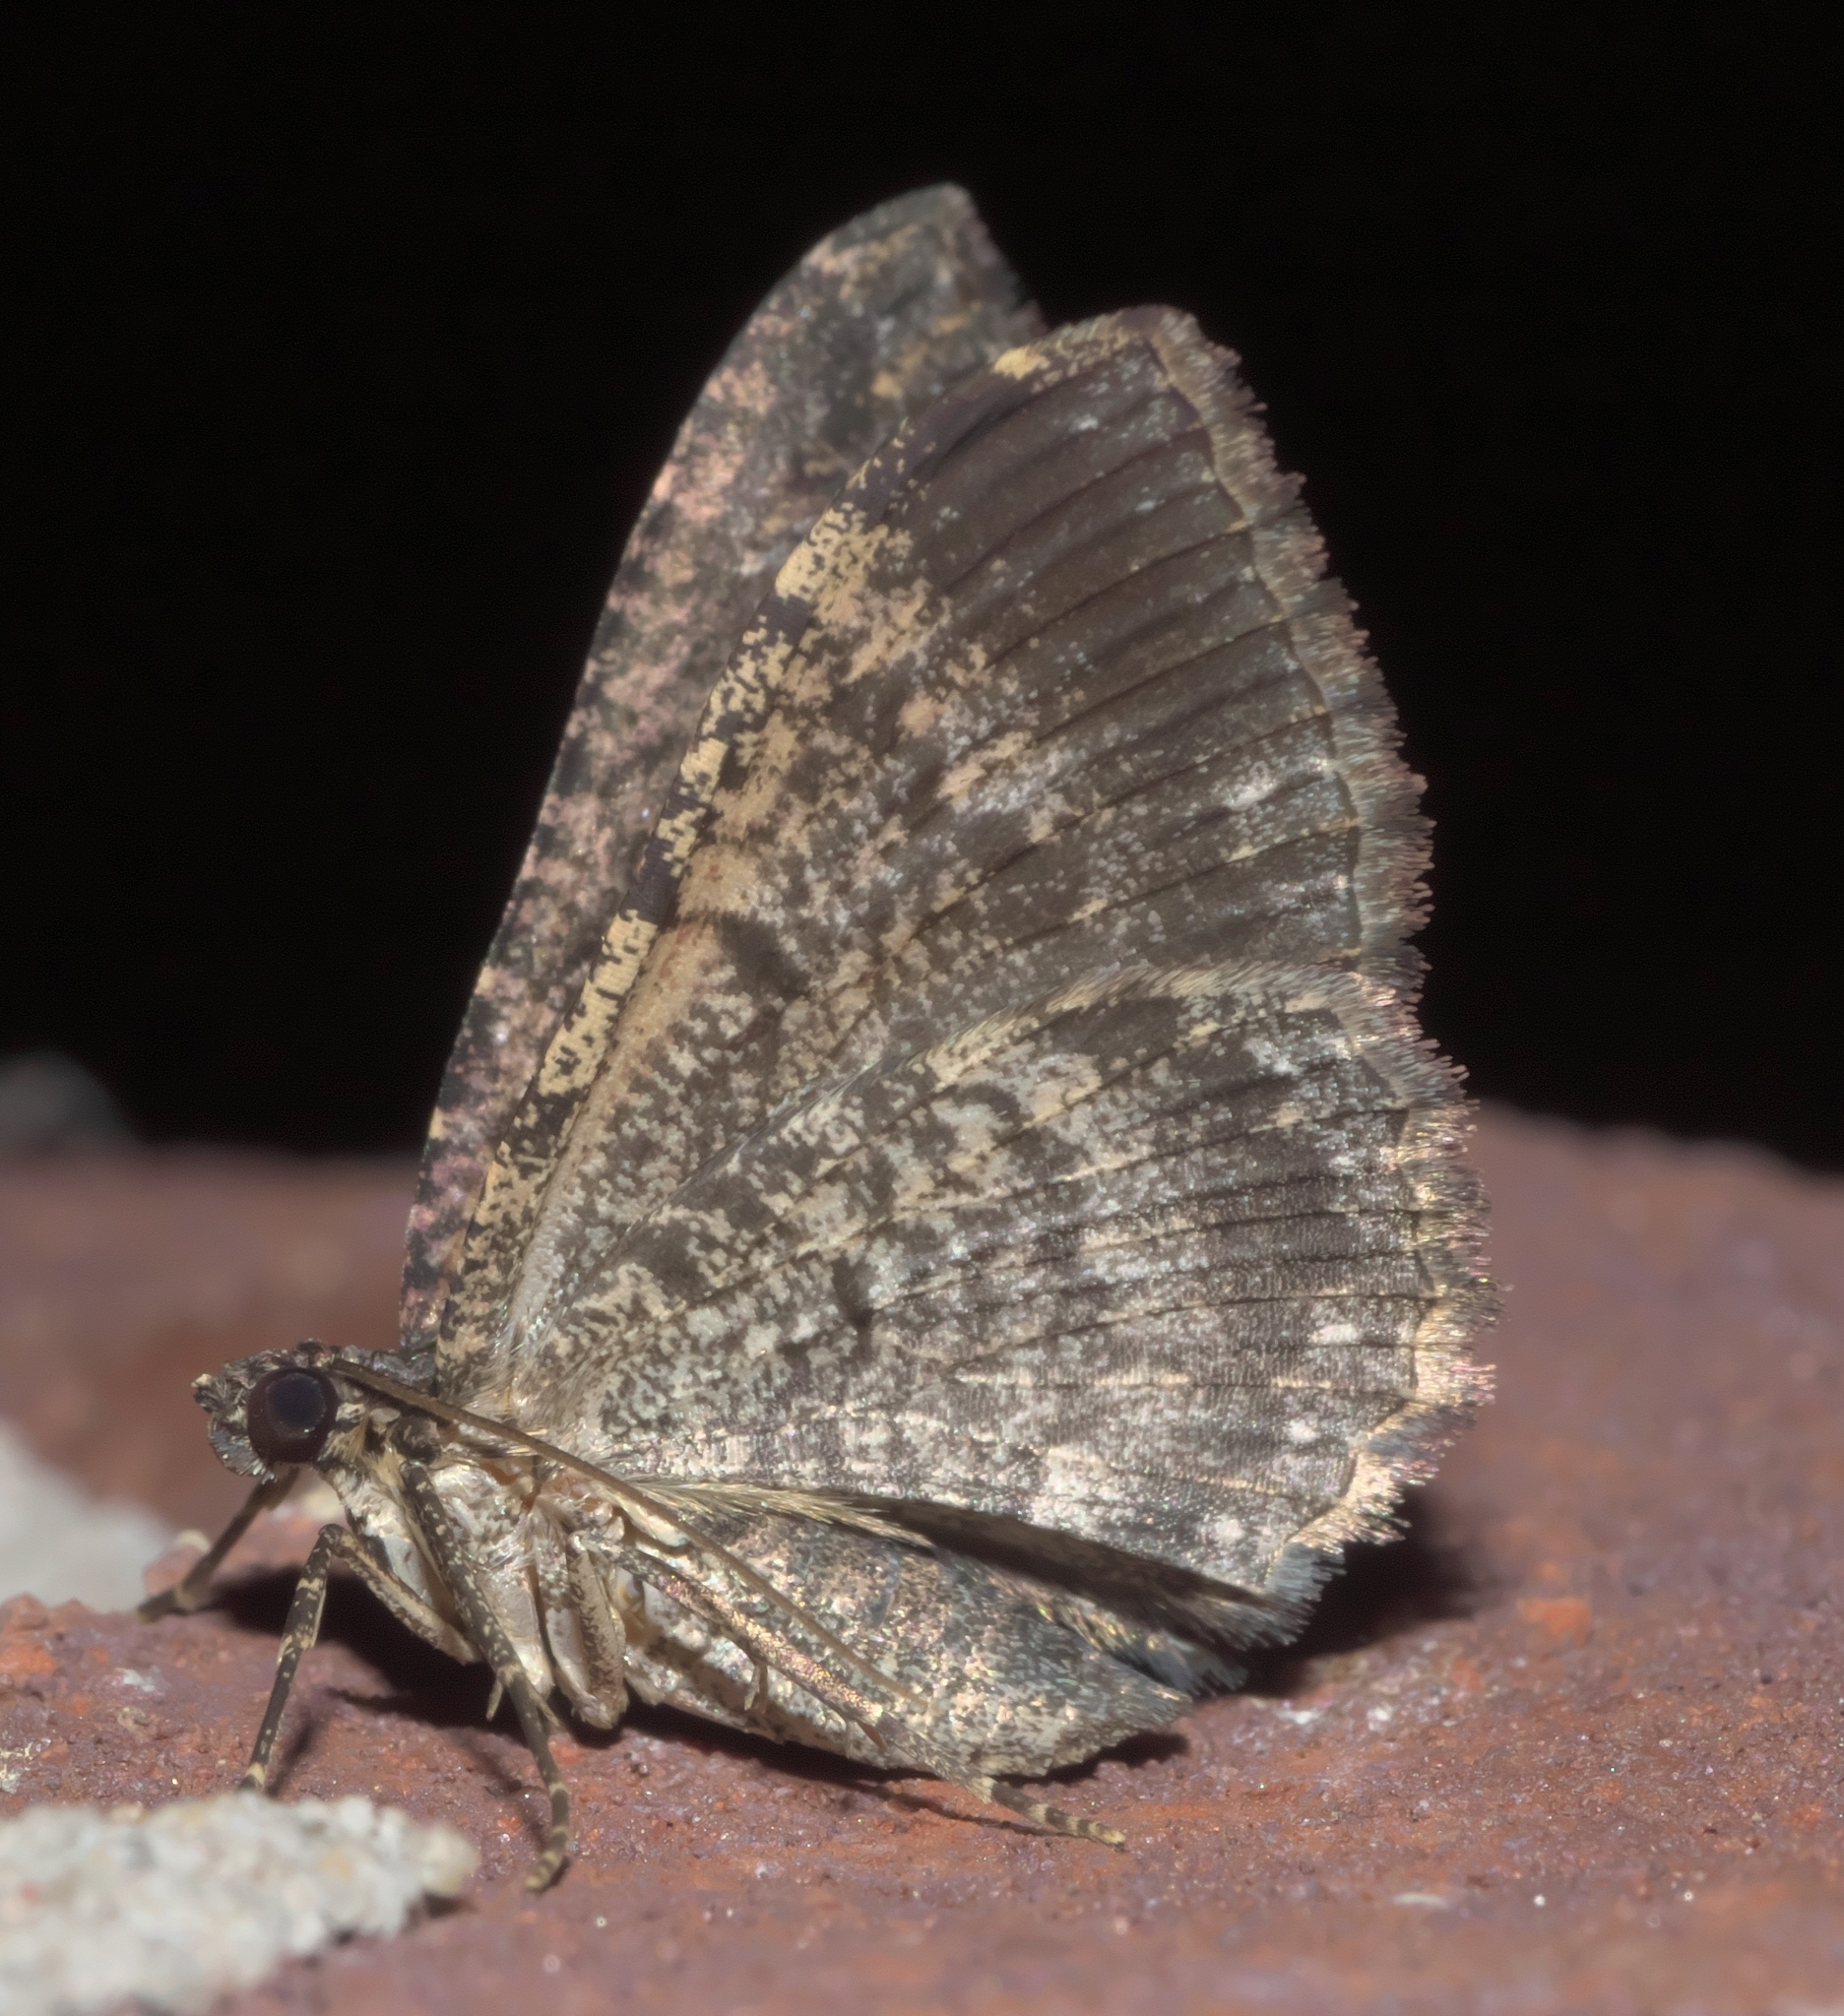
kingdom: Animalia
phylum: Arthropoda
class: Insecta
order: Lepidoptera
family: Geometridae
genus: Disclisioprocta
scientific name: Disclisioprocta stellata
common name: Somber carpet
